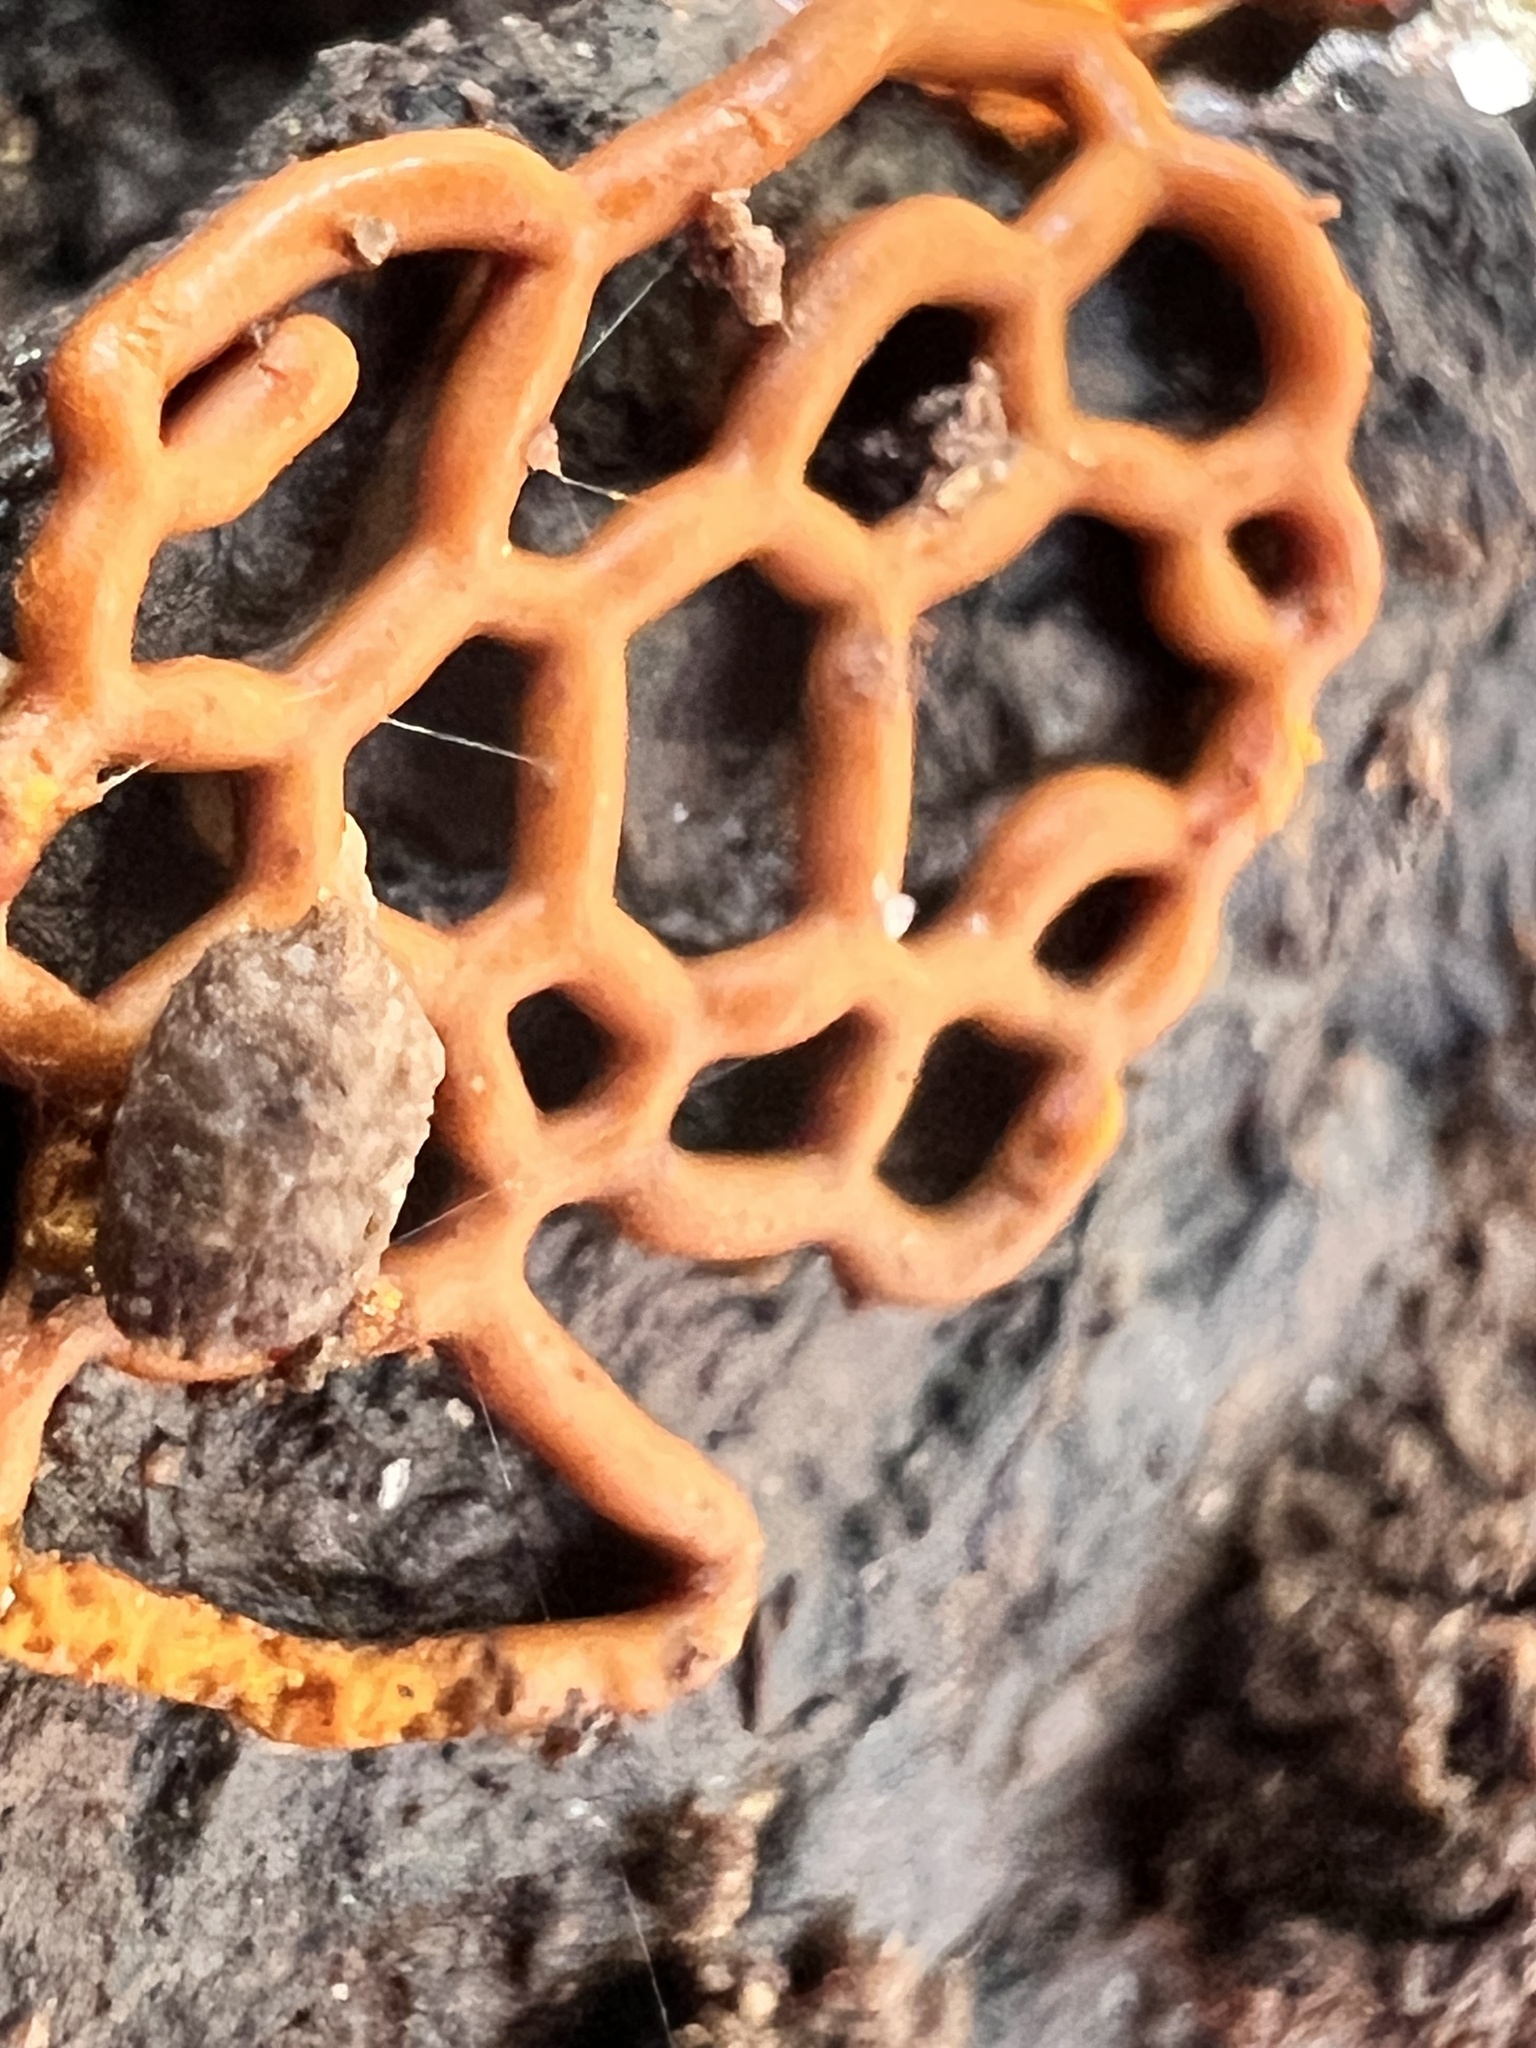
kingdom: Protozoa
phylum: Mycetozoa
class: Myxomycetes
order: Trichiales
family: Arcyriaceae
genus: Hemitrichia
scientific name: Hemitrichia serpula
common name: Pretzel slime mold
